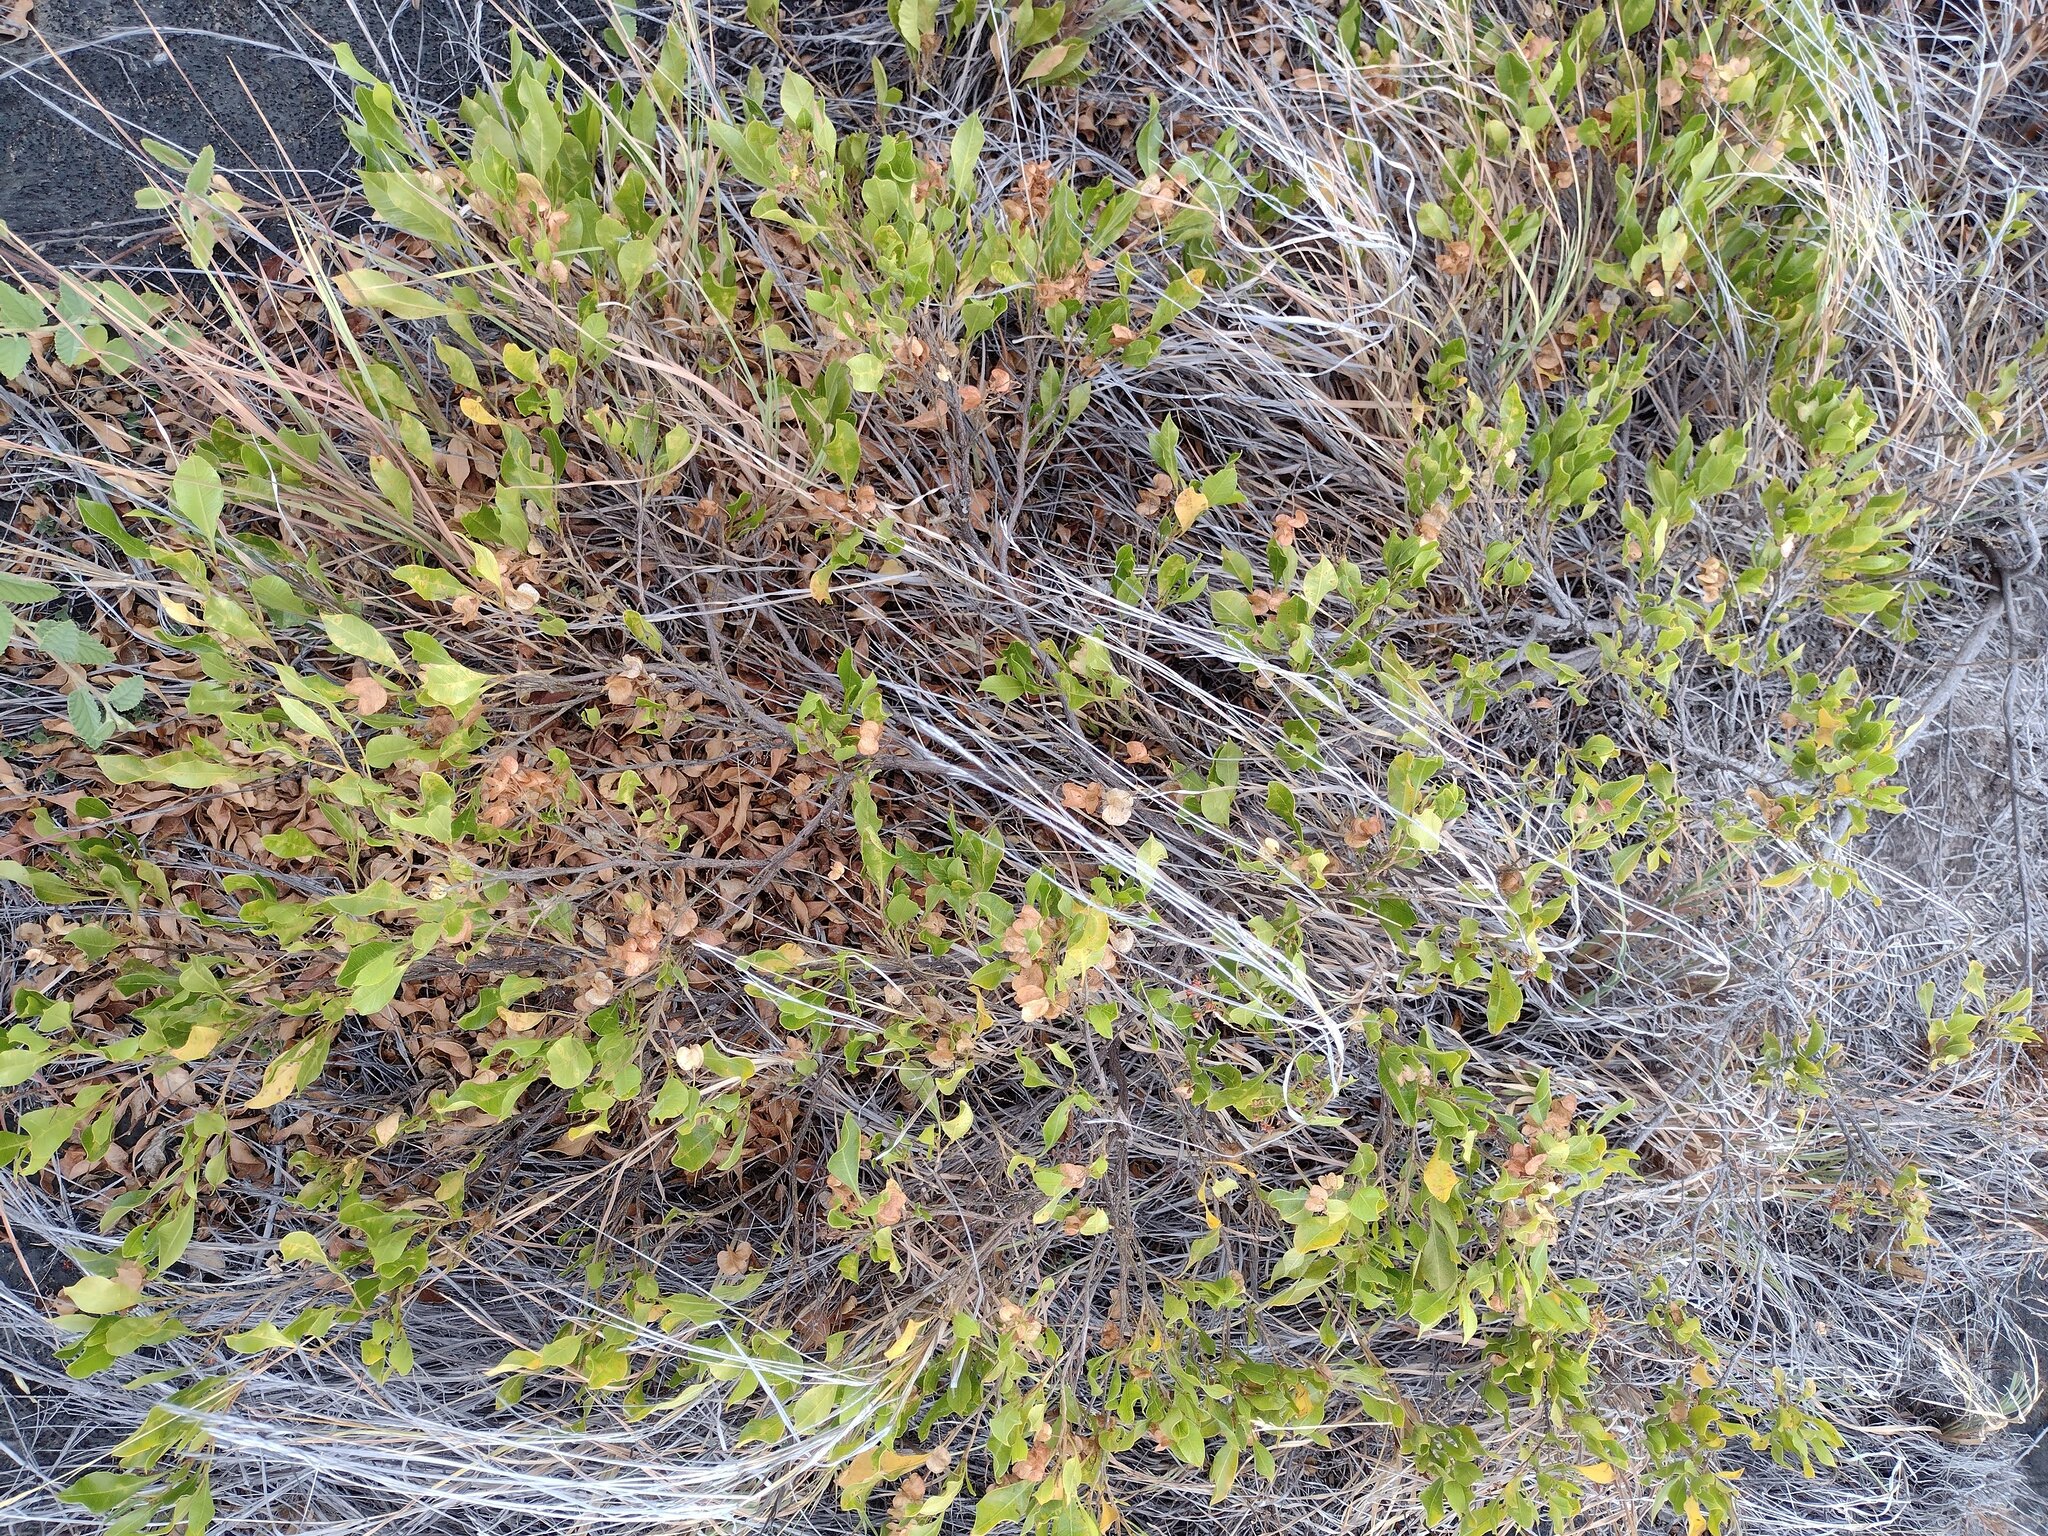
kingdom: Plantae
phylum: Tracheophyta
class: Magnoliopsida
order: Sapindales
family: Sapindaceae
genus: Dodonaea
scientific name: Dodonaea viscosa
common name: Hopbush
